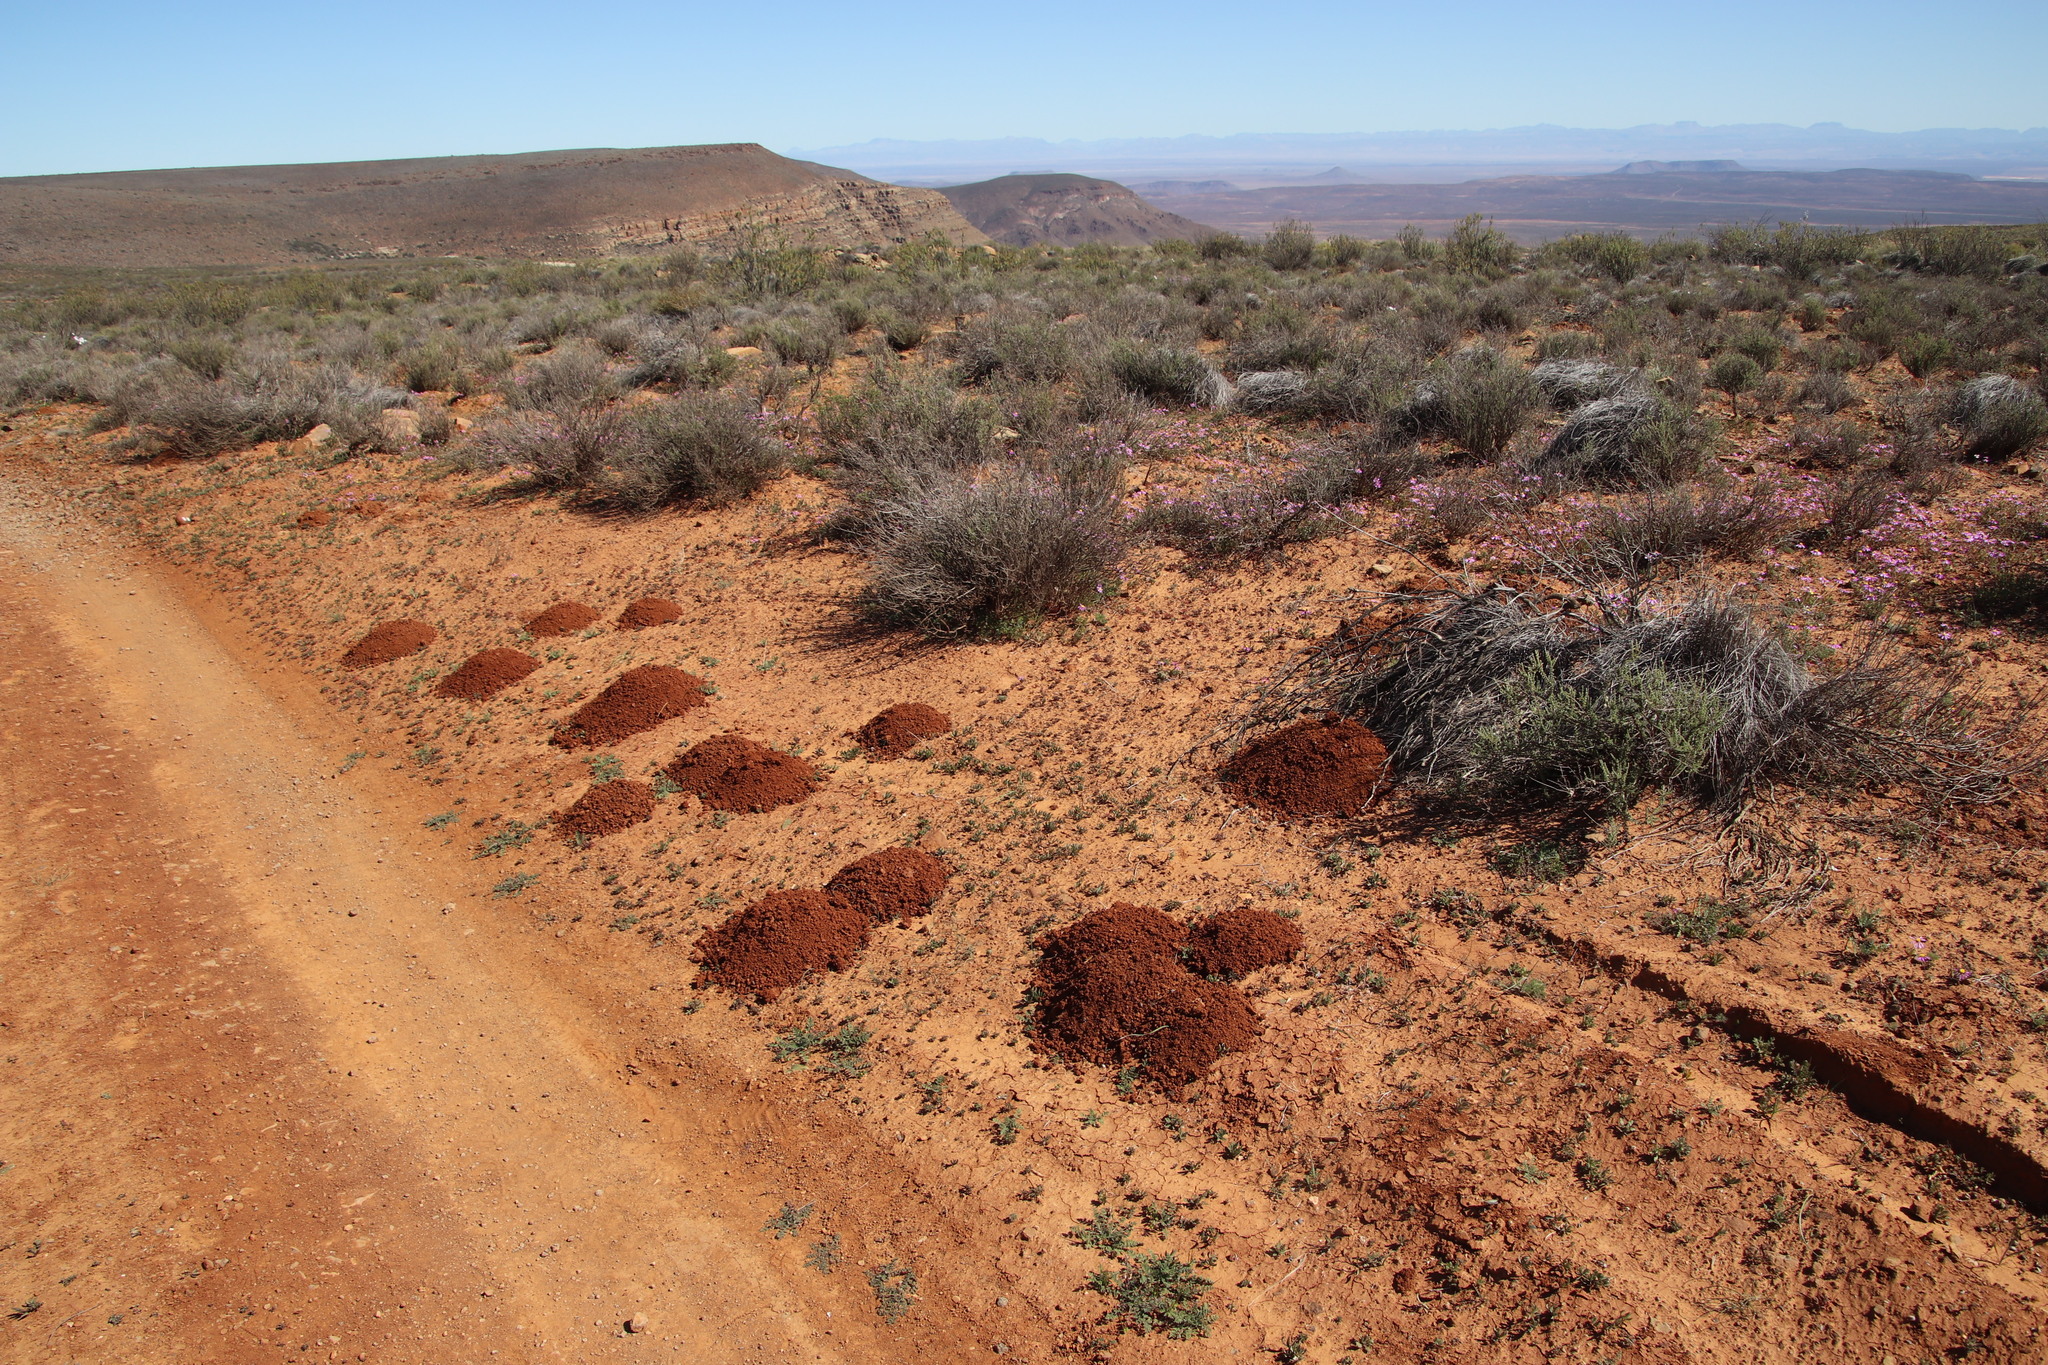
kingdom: Animalia
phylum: Chordata
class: Mammalia
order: Rodentia
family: Bathyergidae
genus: Cryptomys
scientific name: Cryptomys hottentotus
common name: Southern african mole-rat
